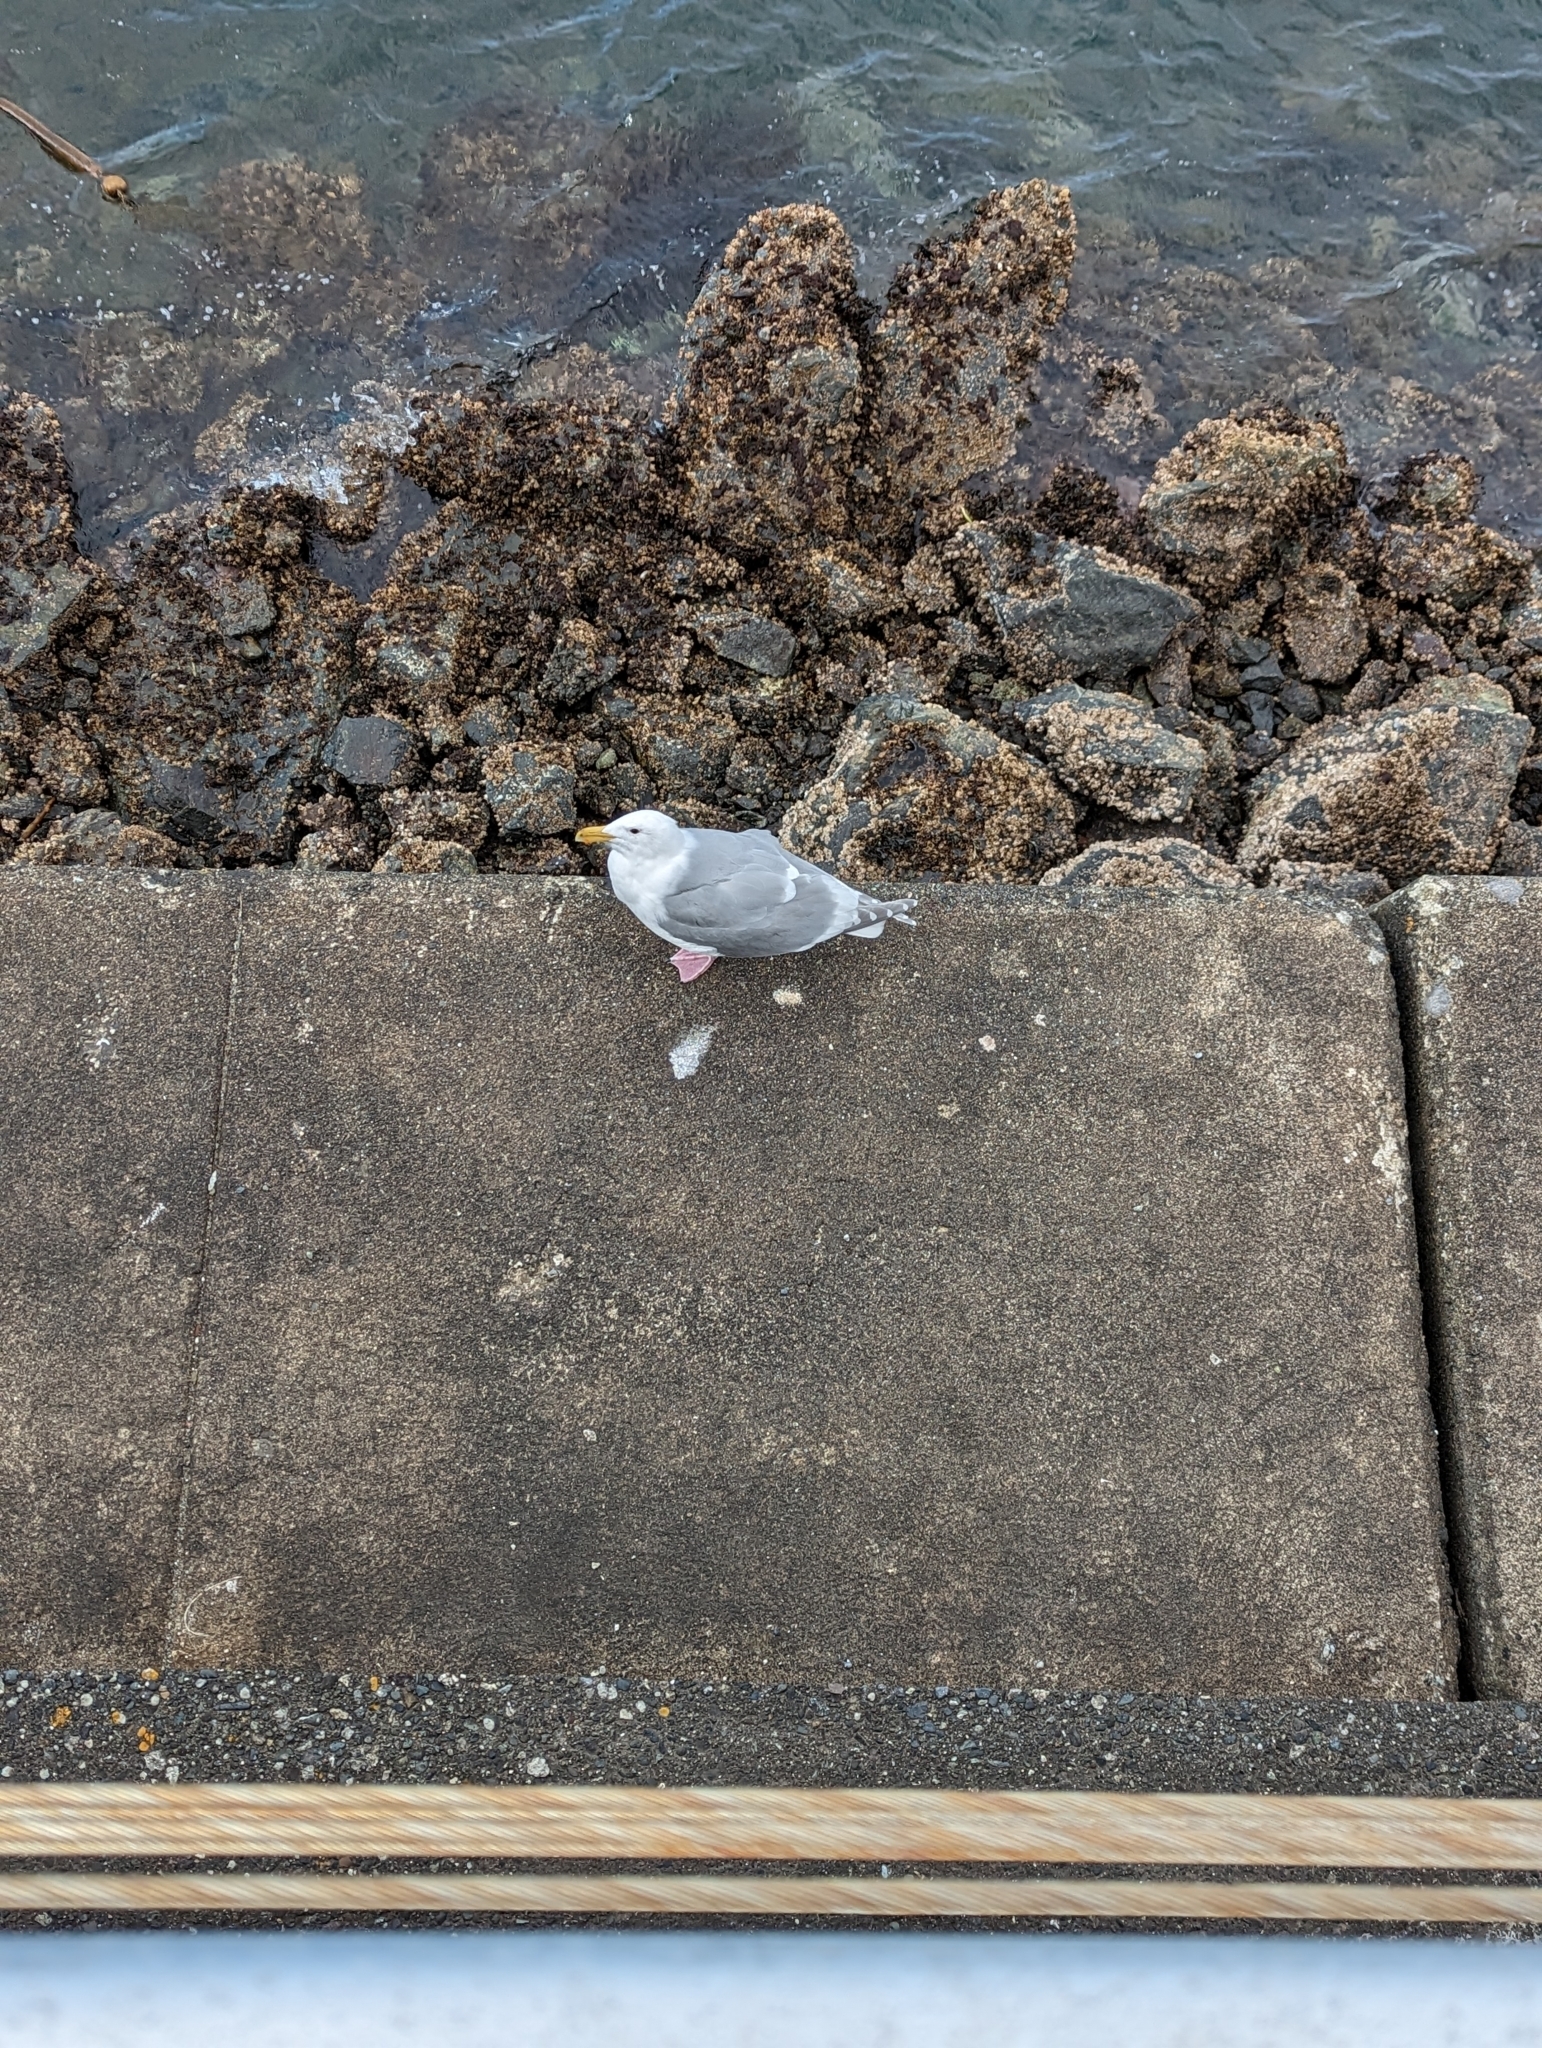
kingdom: Animalia
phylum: Chordata
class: Aves
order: Charadriiformes
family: Laridae
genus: Larus
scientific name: Larus
